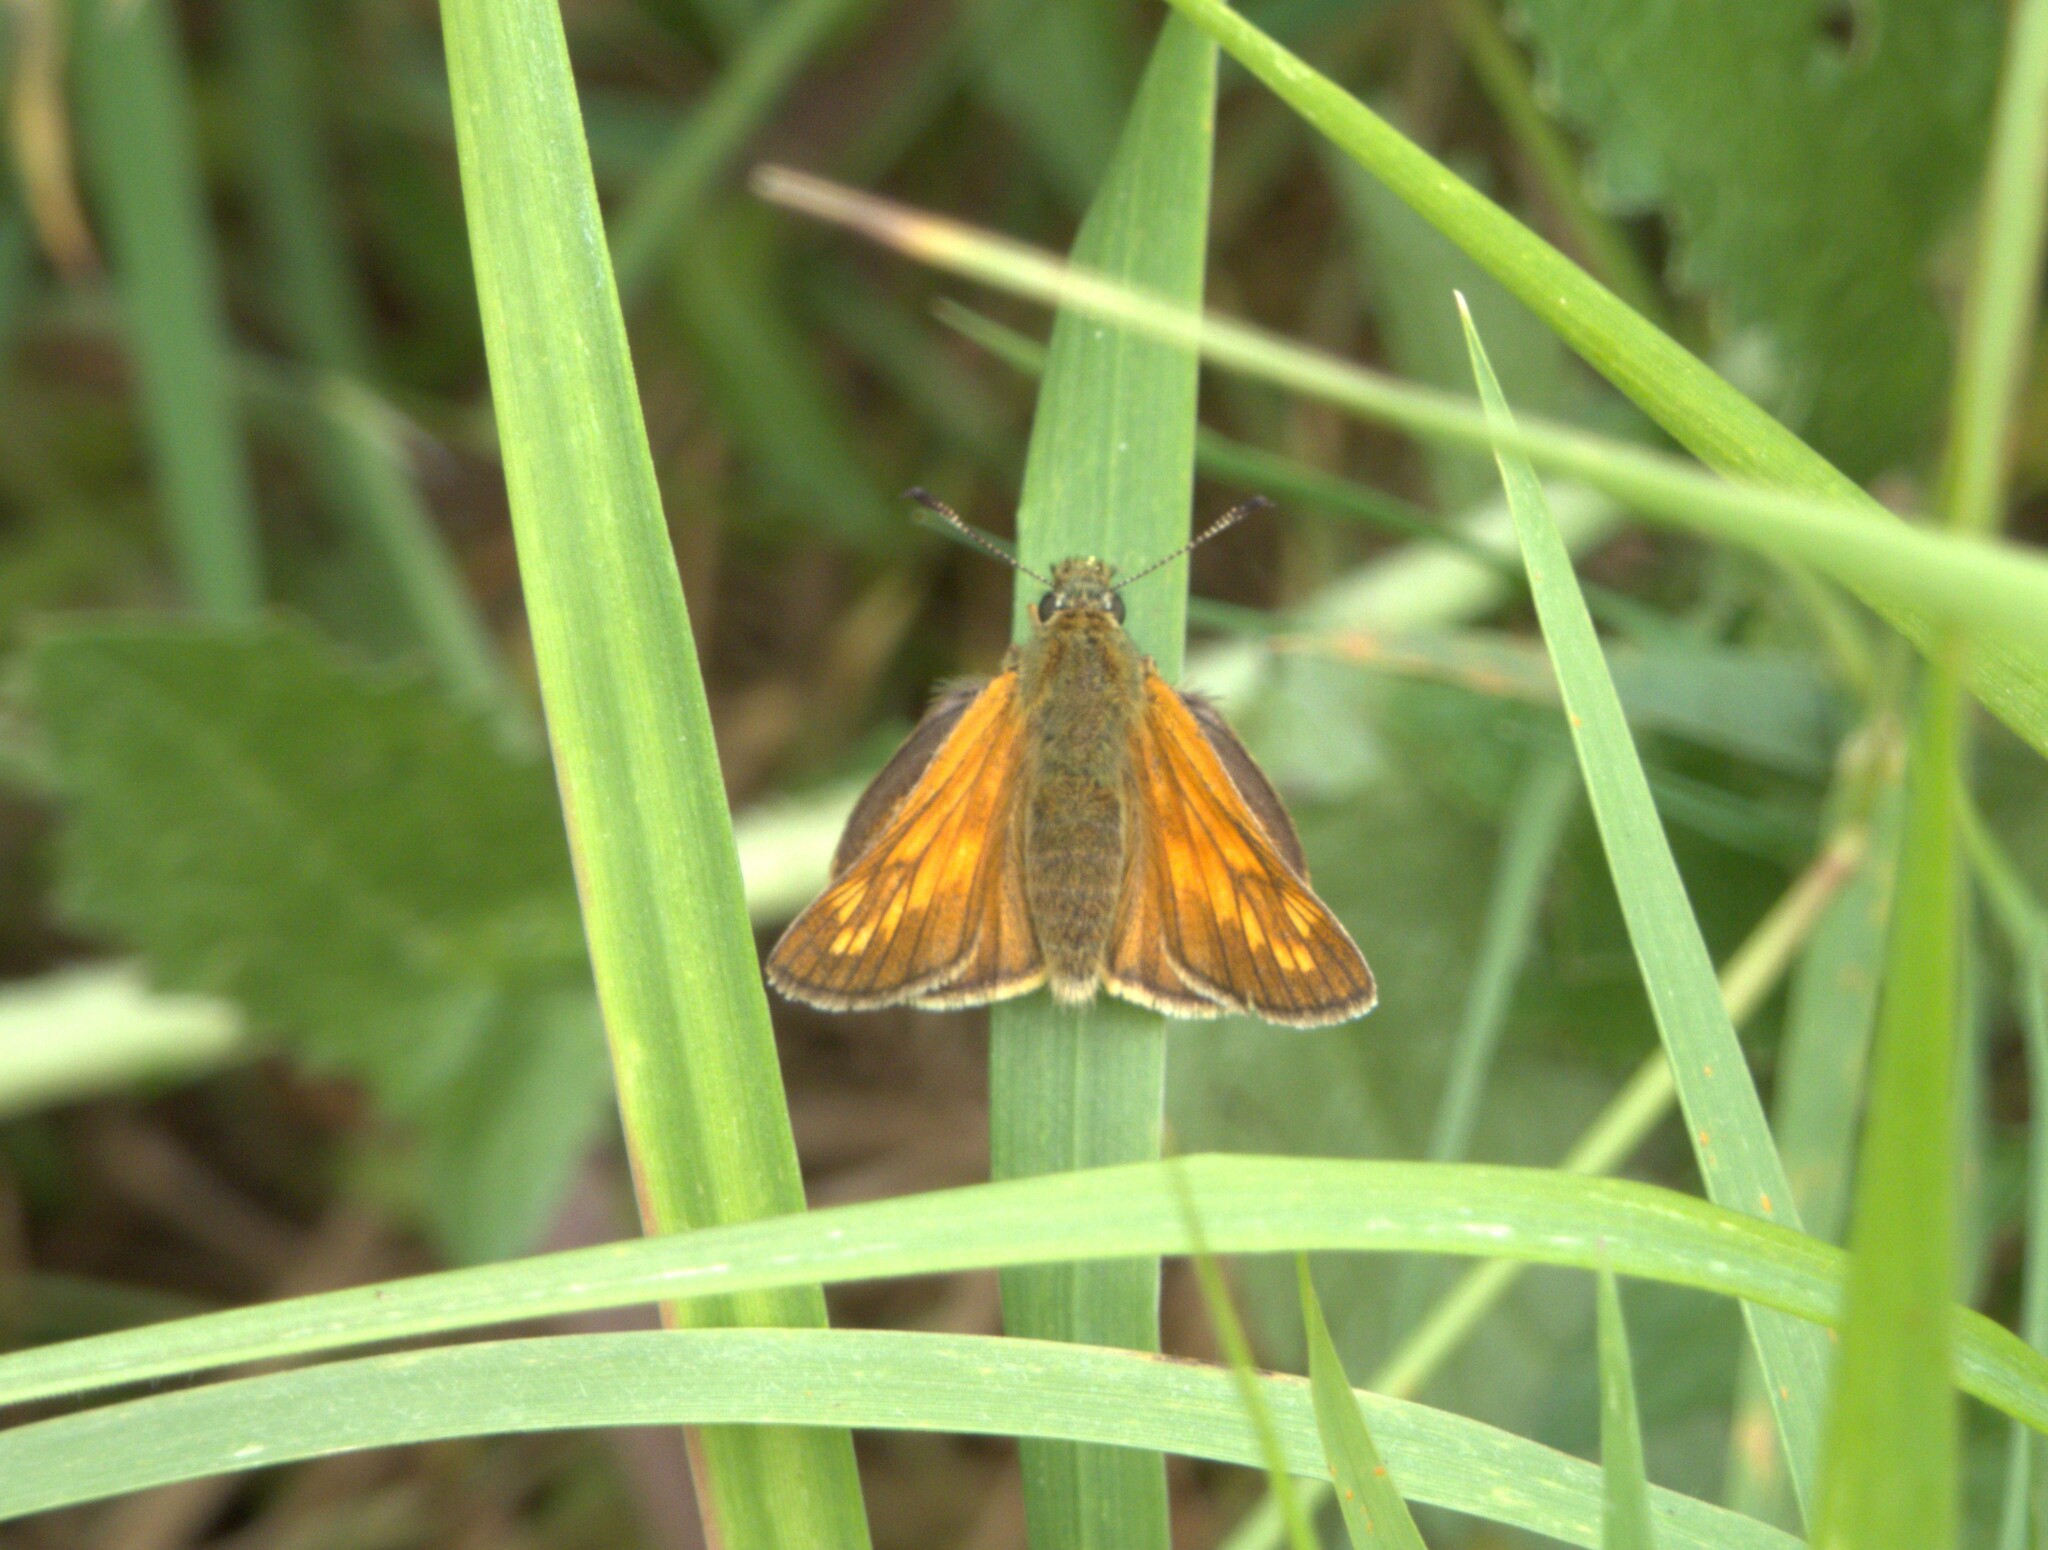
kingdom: Animalia
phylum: Arthropoda
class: Insecta
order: Lepidoptera
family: Hesperiidae
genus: Ochlodes
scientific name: Ochlodes venata
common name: Large skipper
